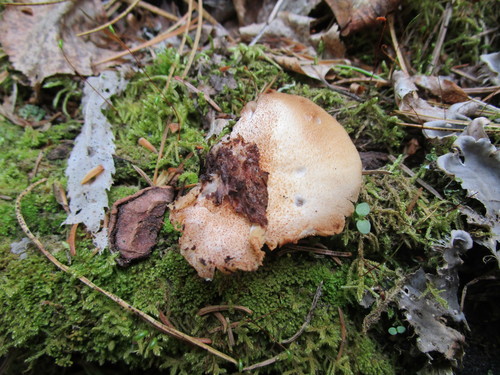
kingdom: Fungi
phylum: Basidiomycota
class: Agaricomycetes
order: Agaricales
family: Crepidotaceae
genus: Crepidotus
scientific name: Crepidotus
